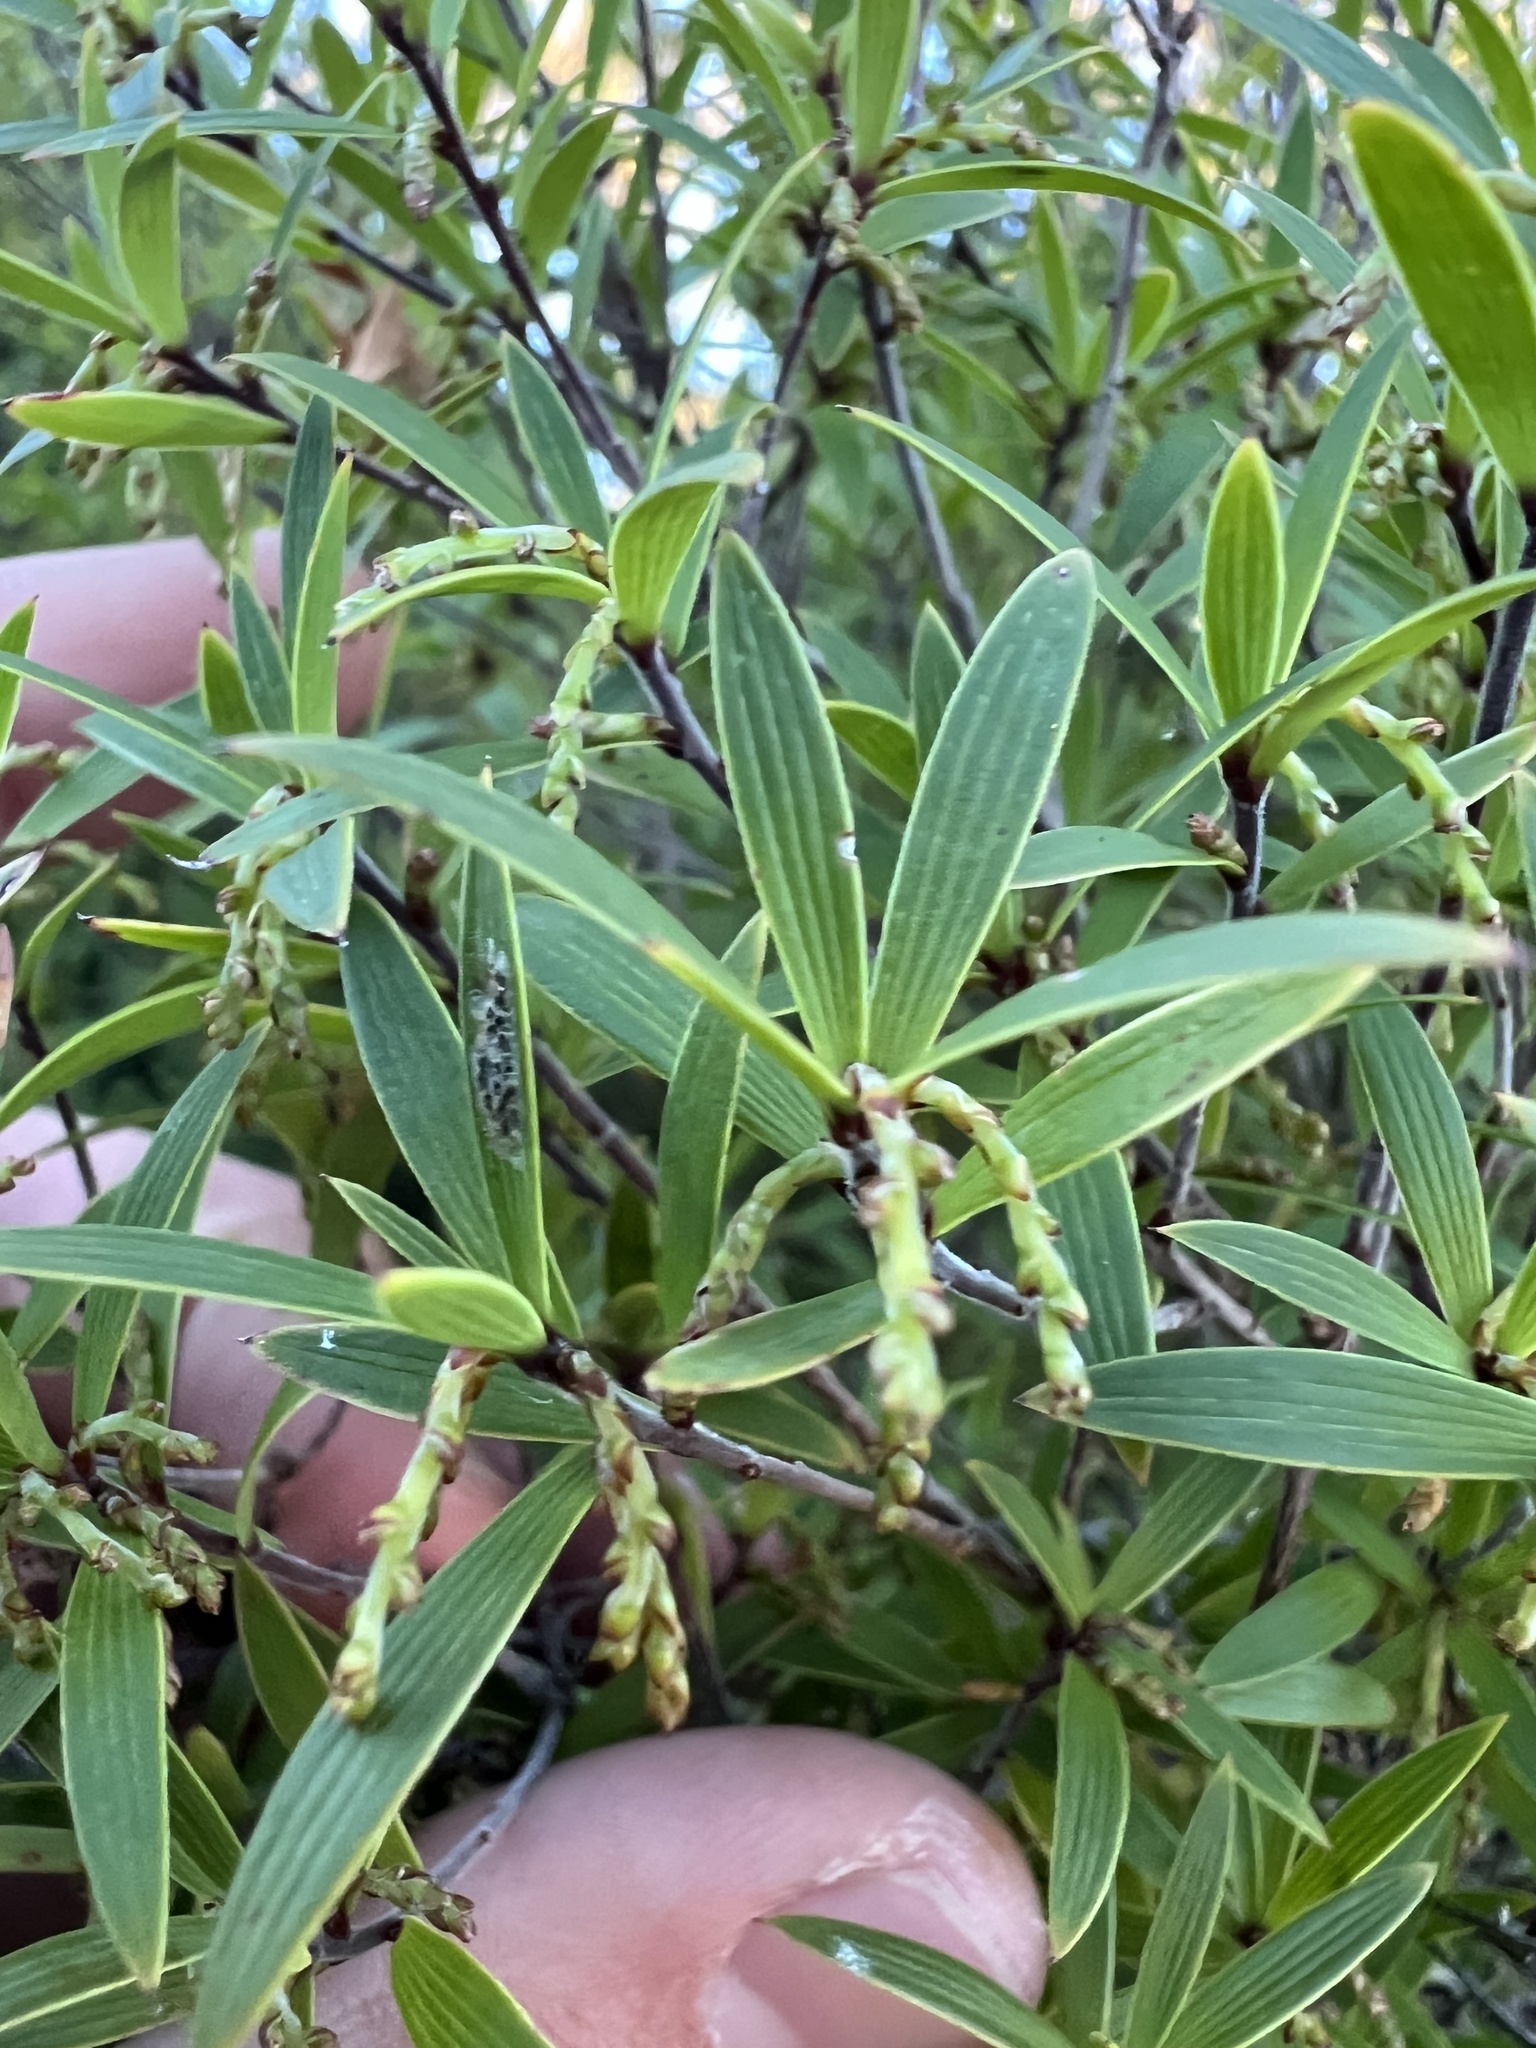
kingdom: Plantae
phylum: Tracheophyta
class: Magnoliopsida
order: Ericales
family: Ericaceae
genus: Leucopogon
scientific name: Leucopogon fasciculatus
